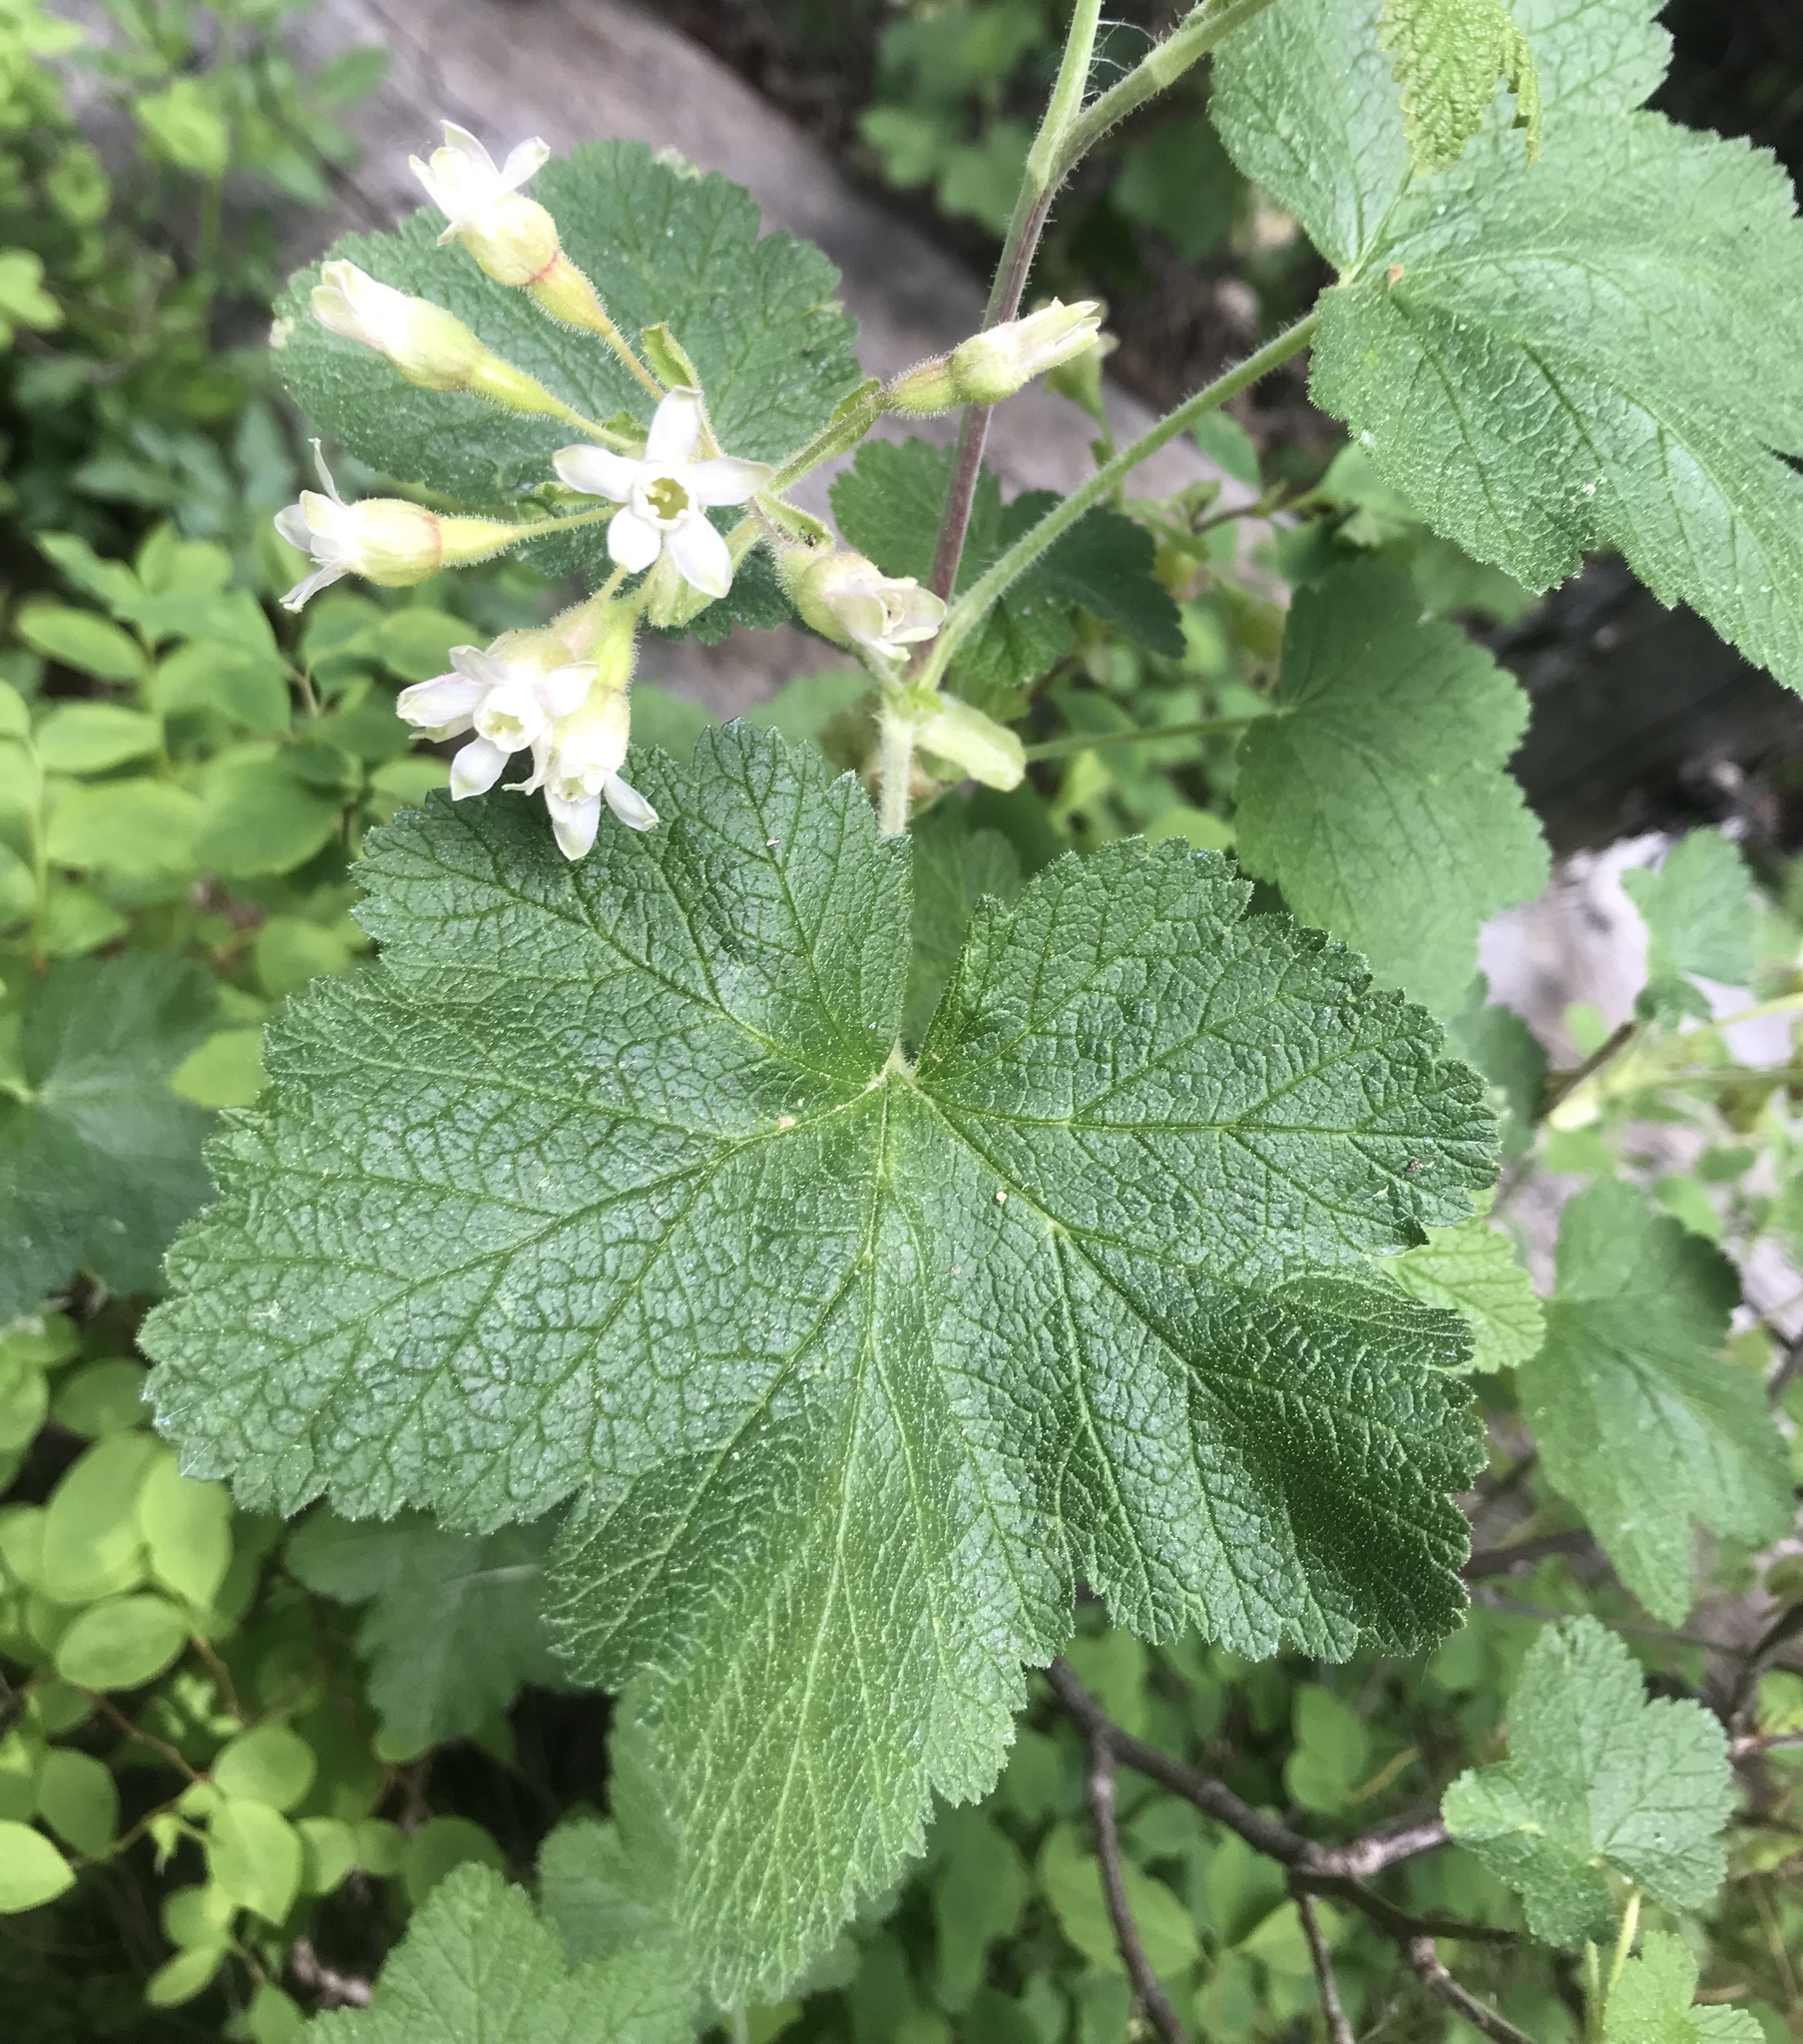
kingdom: Plantae
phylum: Tracheophyta
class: Magnoliopsida
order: Saxifragales
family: Grossulariaceae
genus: Ribes
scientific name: Ribes viscosissimum
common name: Sticky currant
